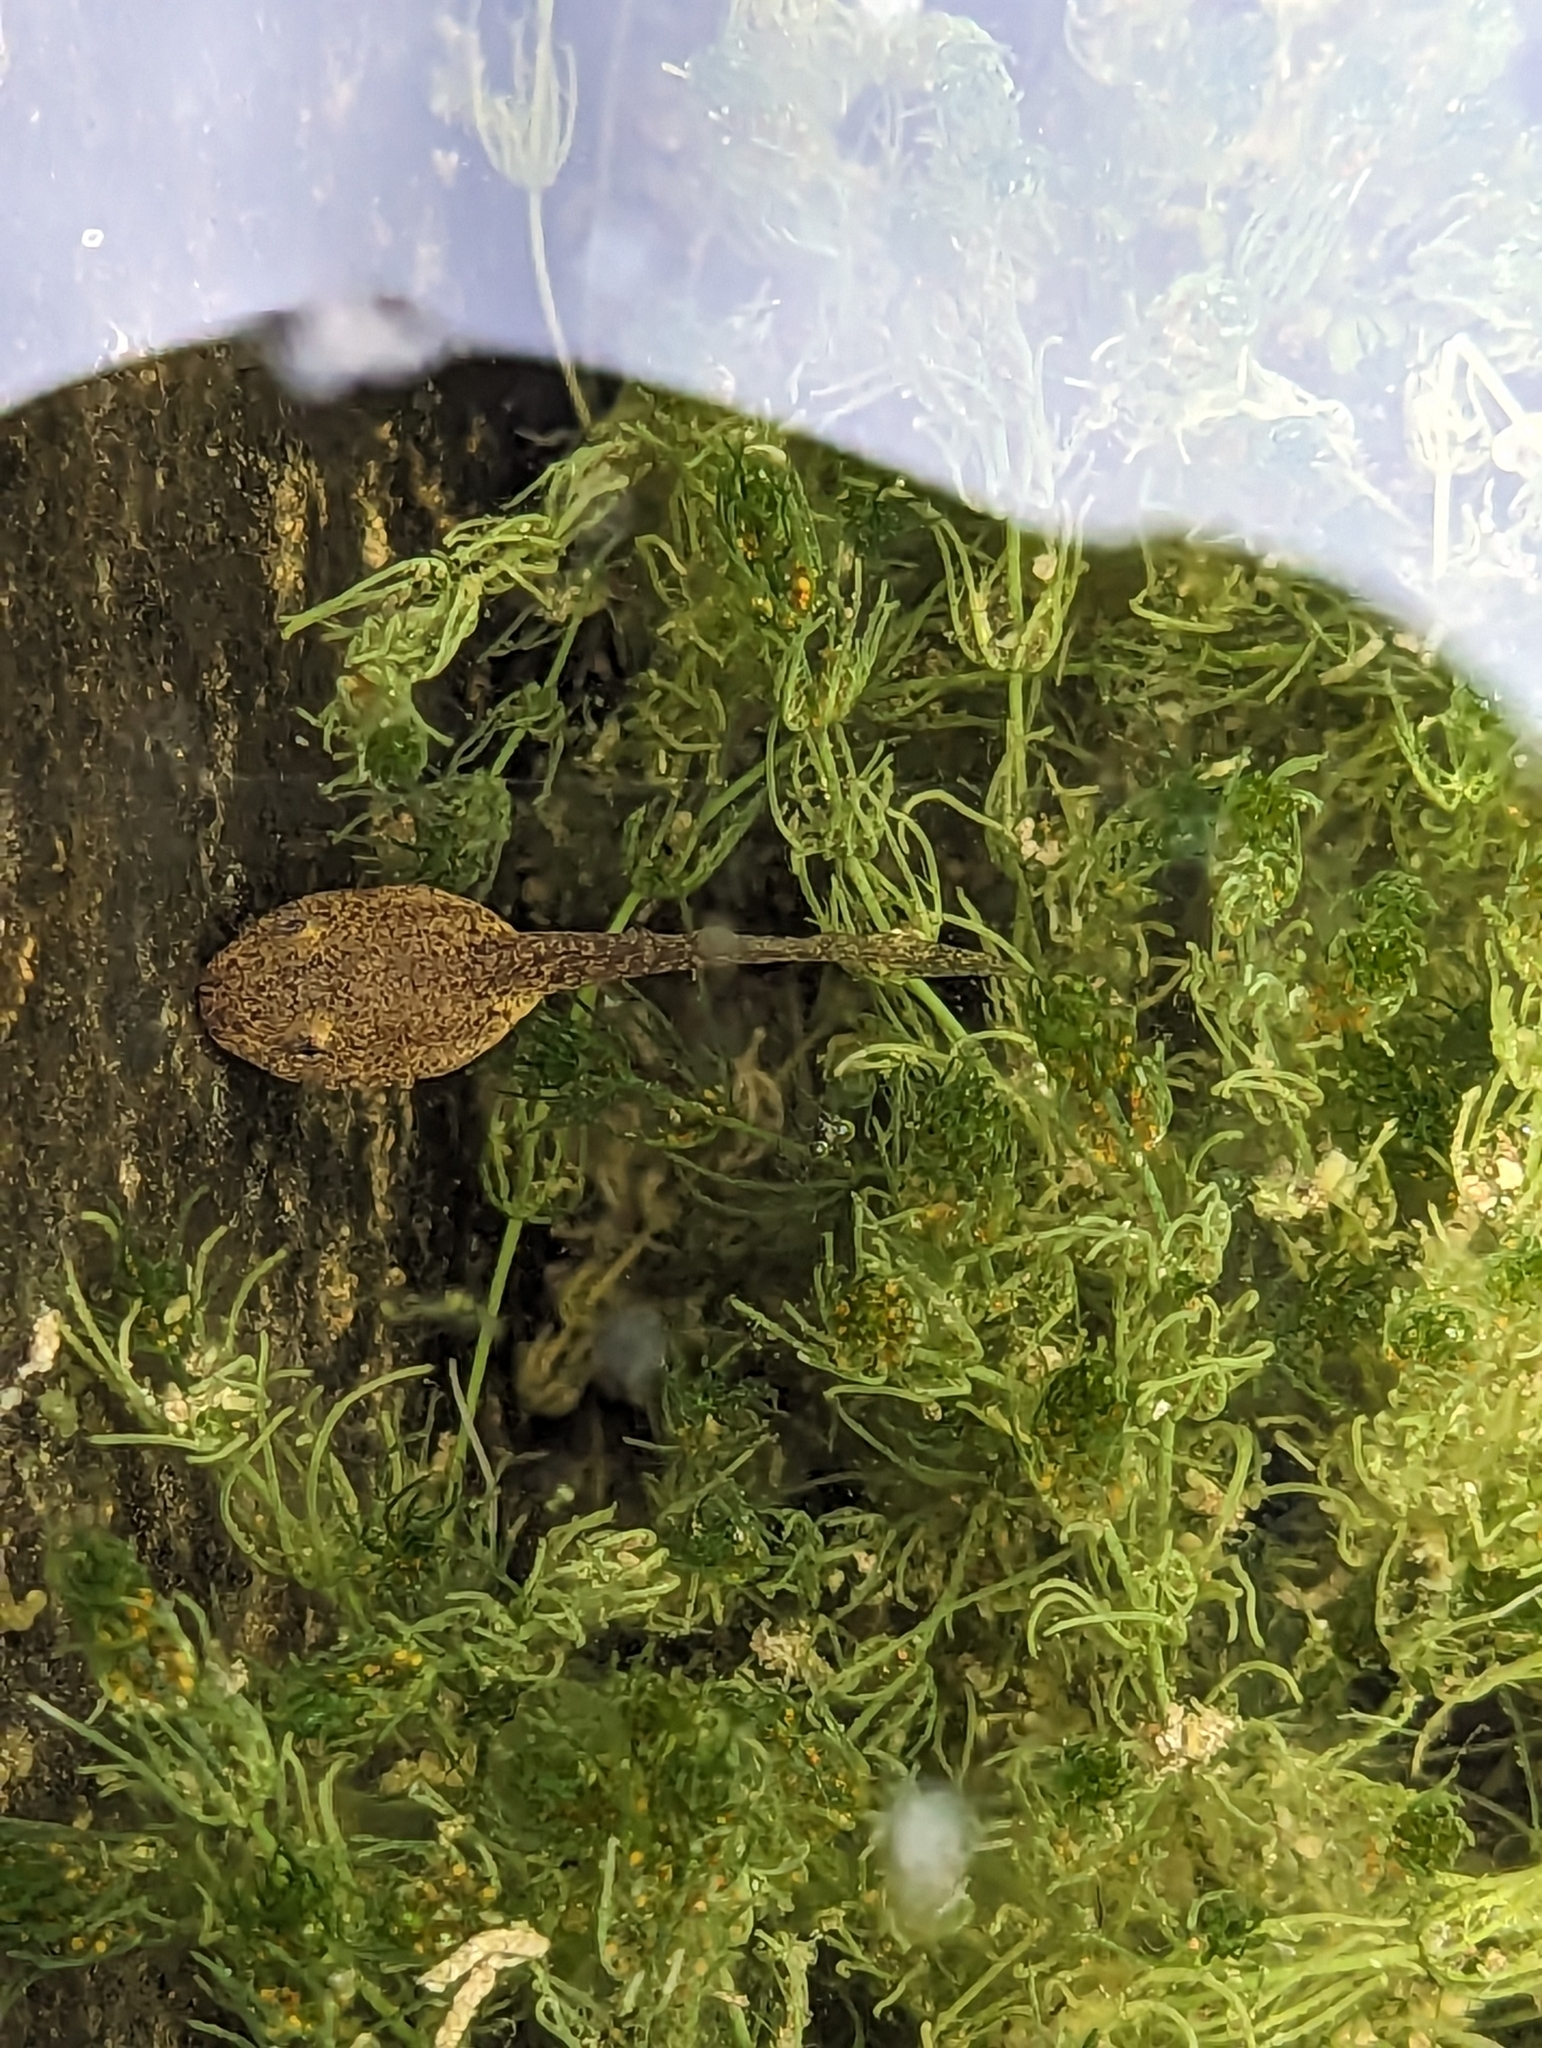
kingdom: Animalia
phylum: Chordata
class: Amphibia
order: Anura
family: Ranidae
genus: Lithobates
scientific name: Lithobates yavapaiensis
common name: Lowland leopard frog
